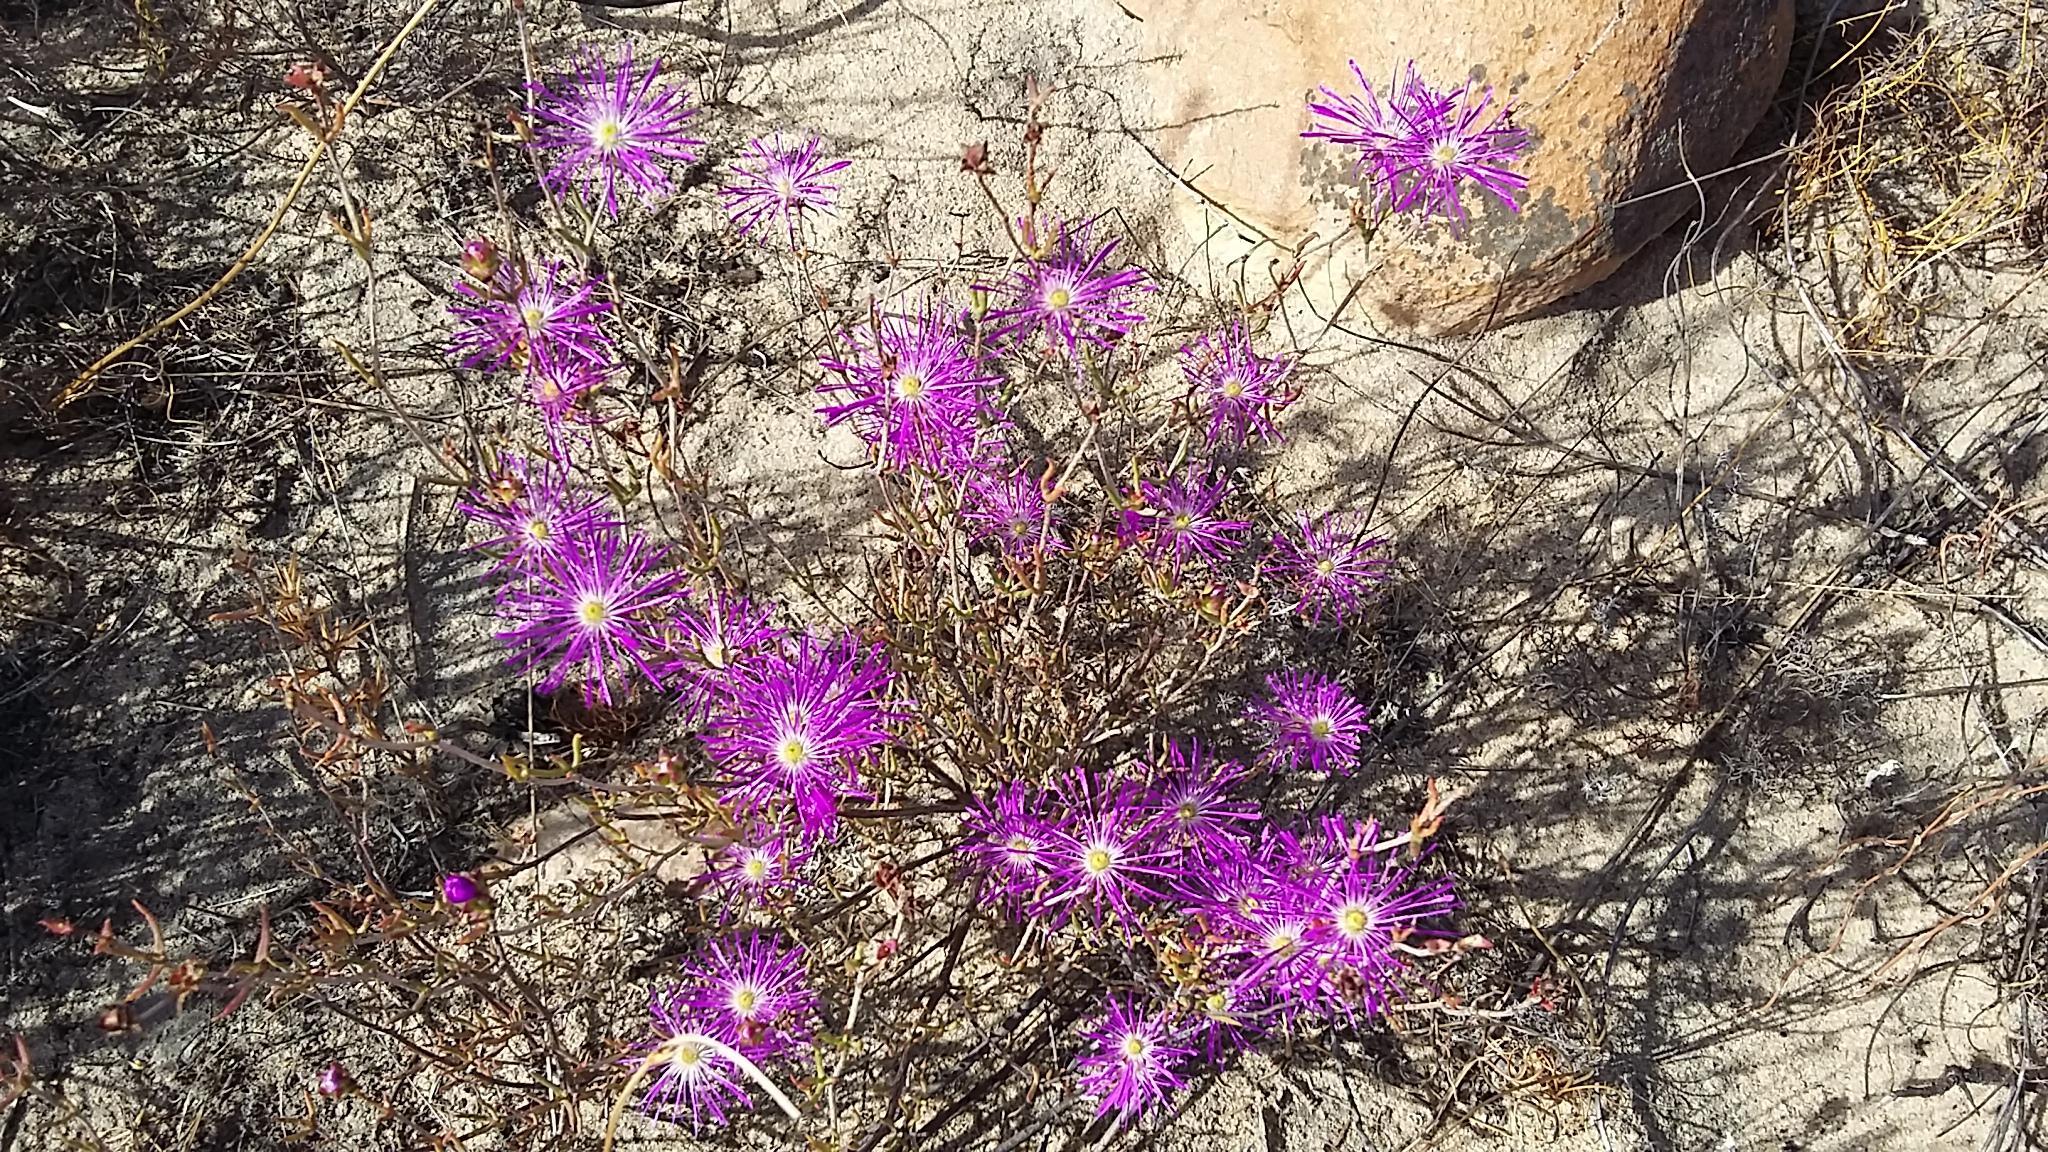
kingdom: Plantae
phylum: Tracheophyta
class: Magnoliopsida
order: Caryophyllales
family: Aizoaceae
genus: Erepsia
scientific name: Erepsia aspera
